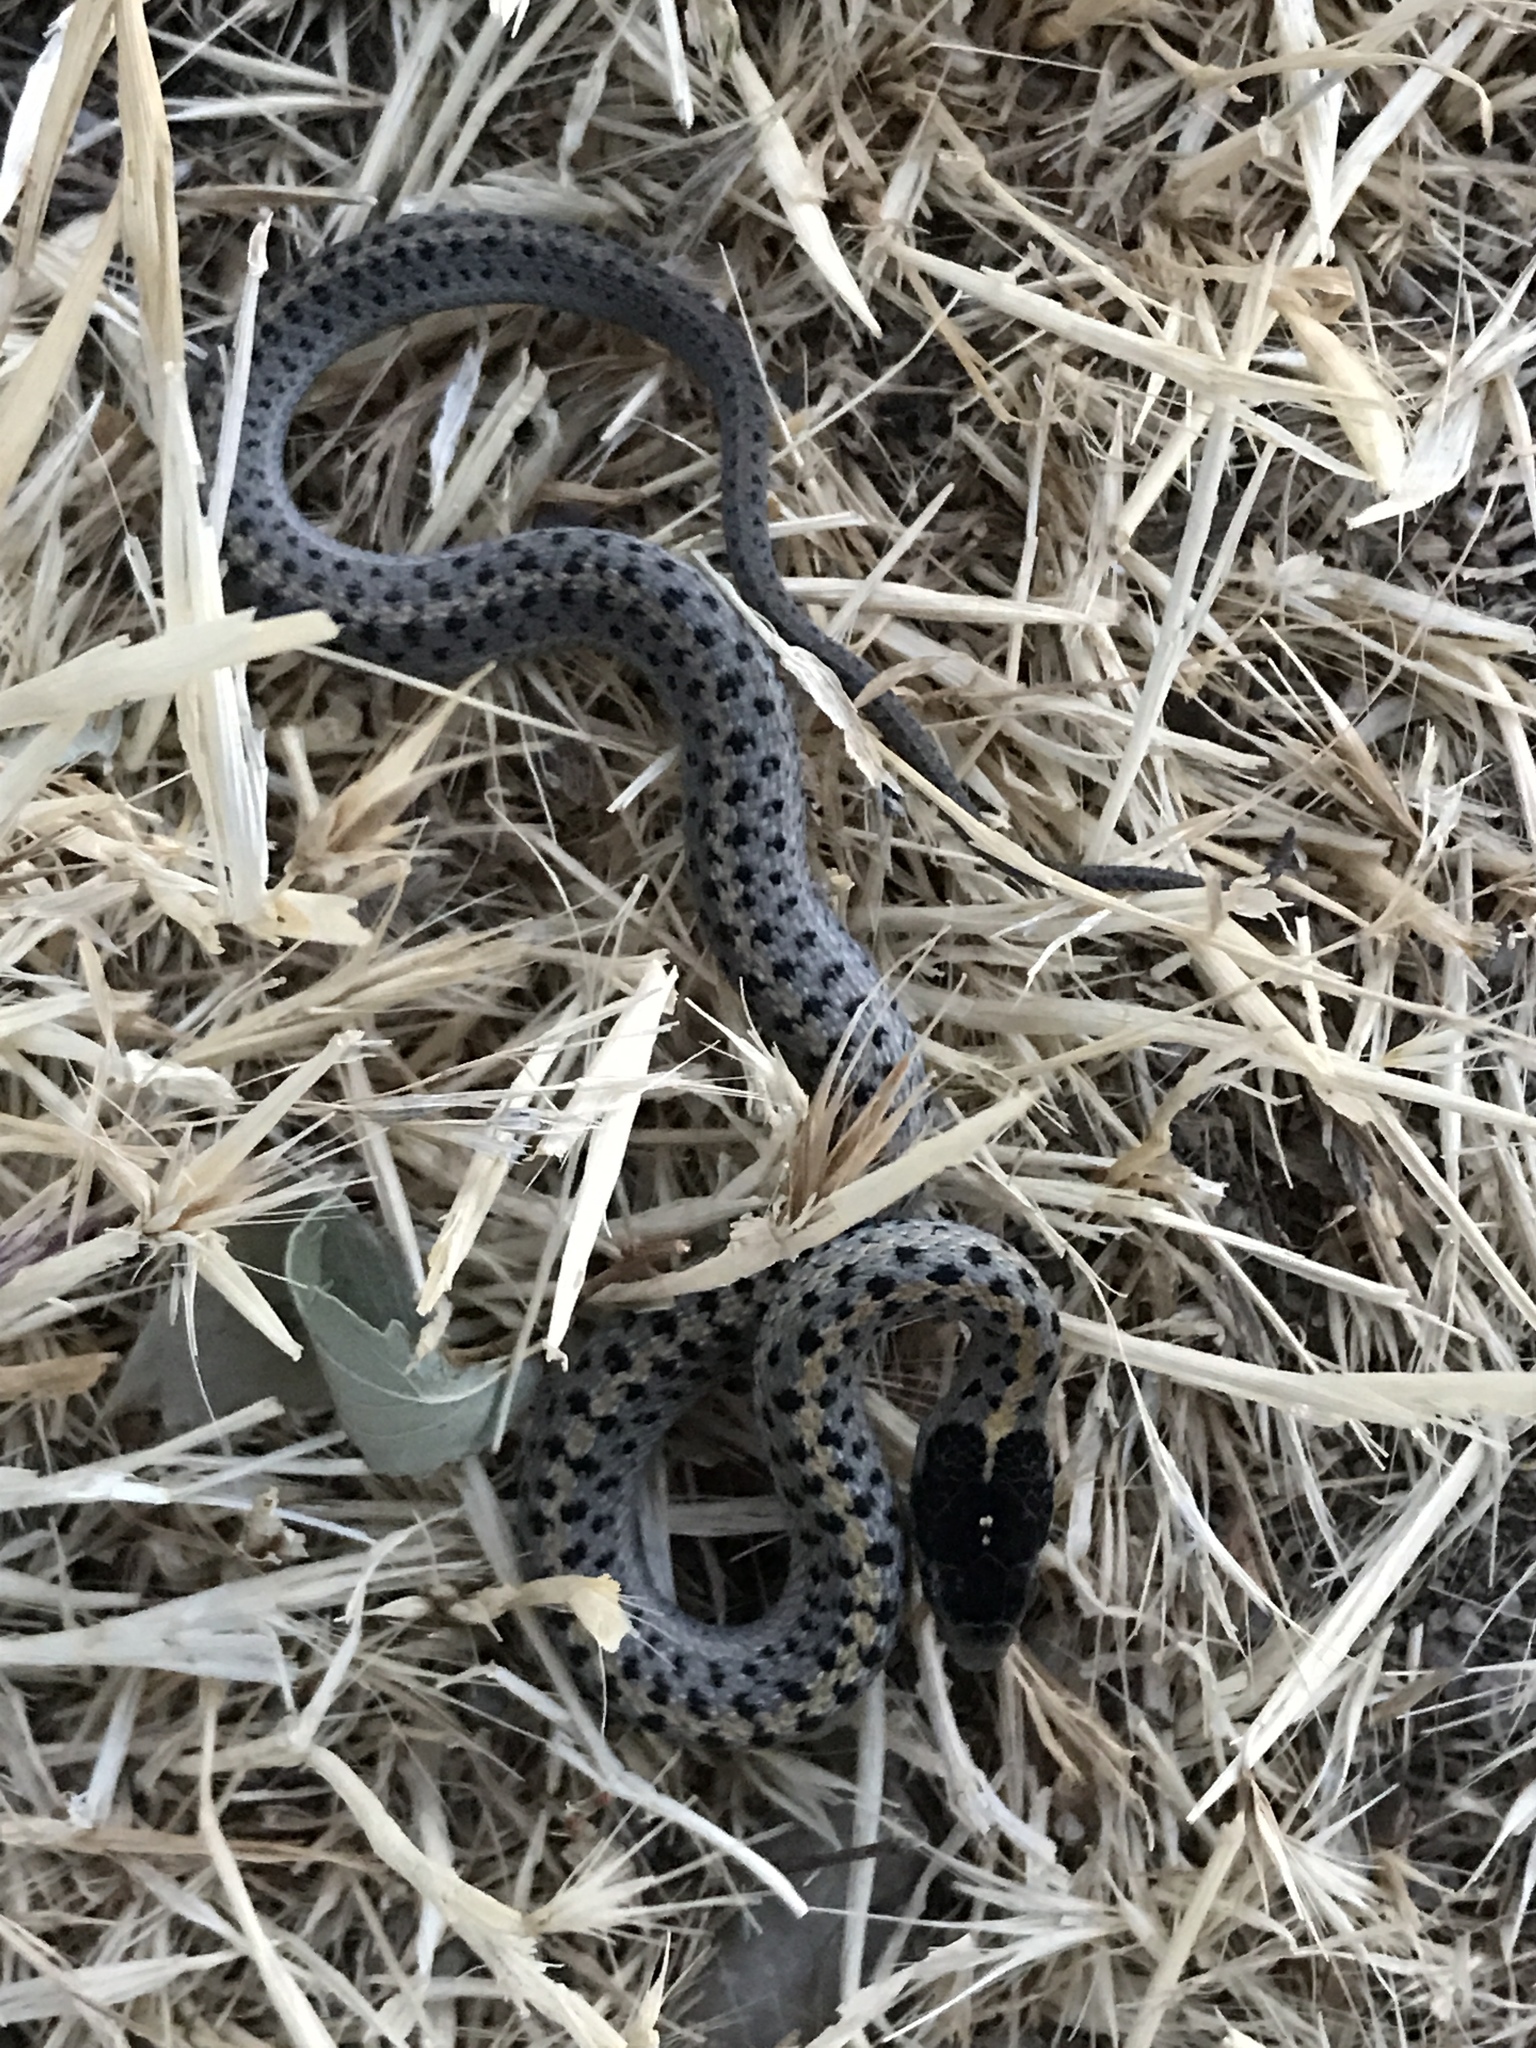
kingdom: Animalia
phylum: Chordata
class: Squamata
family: Colubridae
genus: Thamnophis
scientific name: Thamnophis elegans
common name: Western terrestrial garter snake
